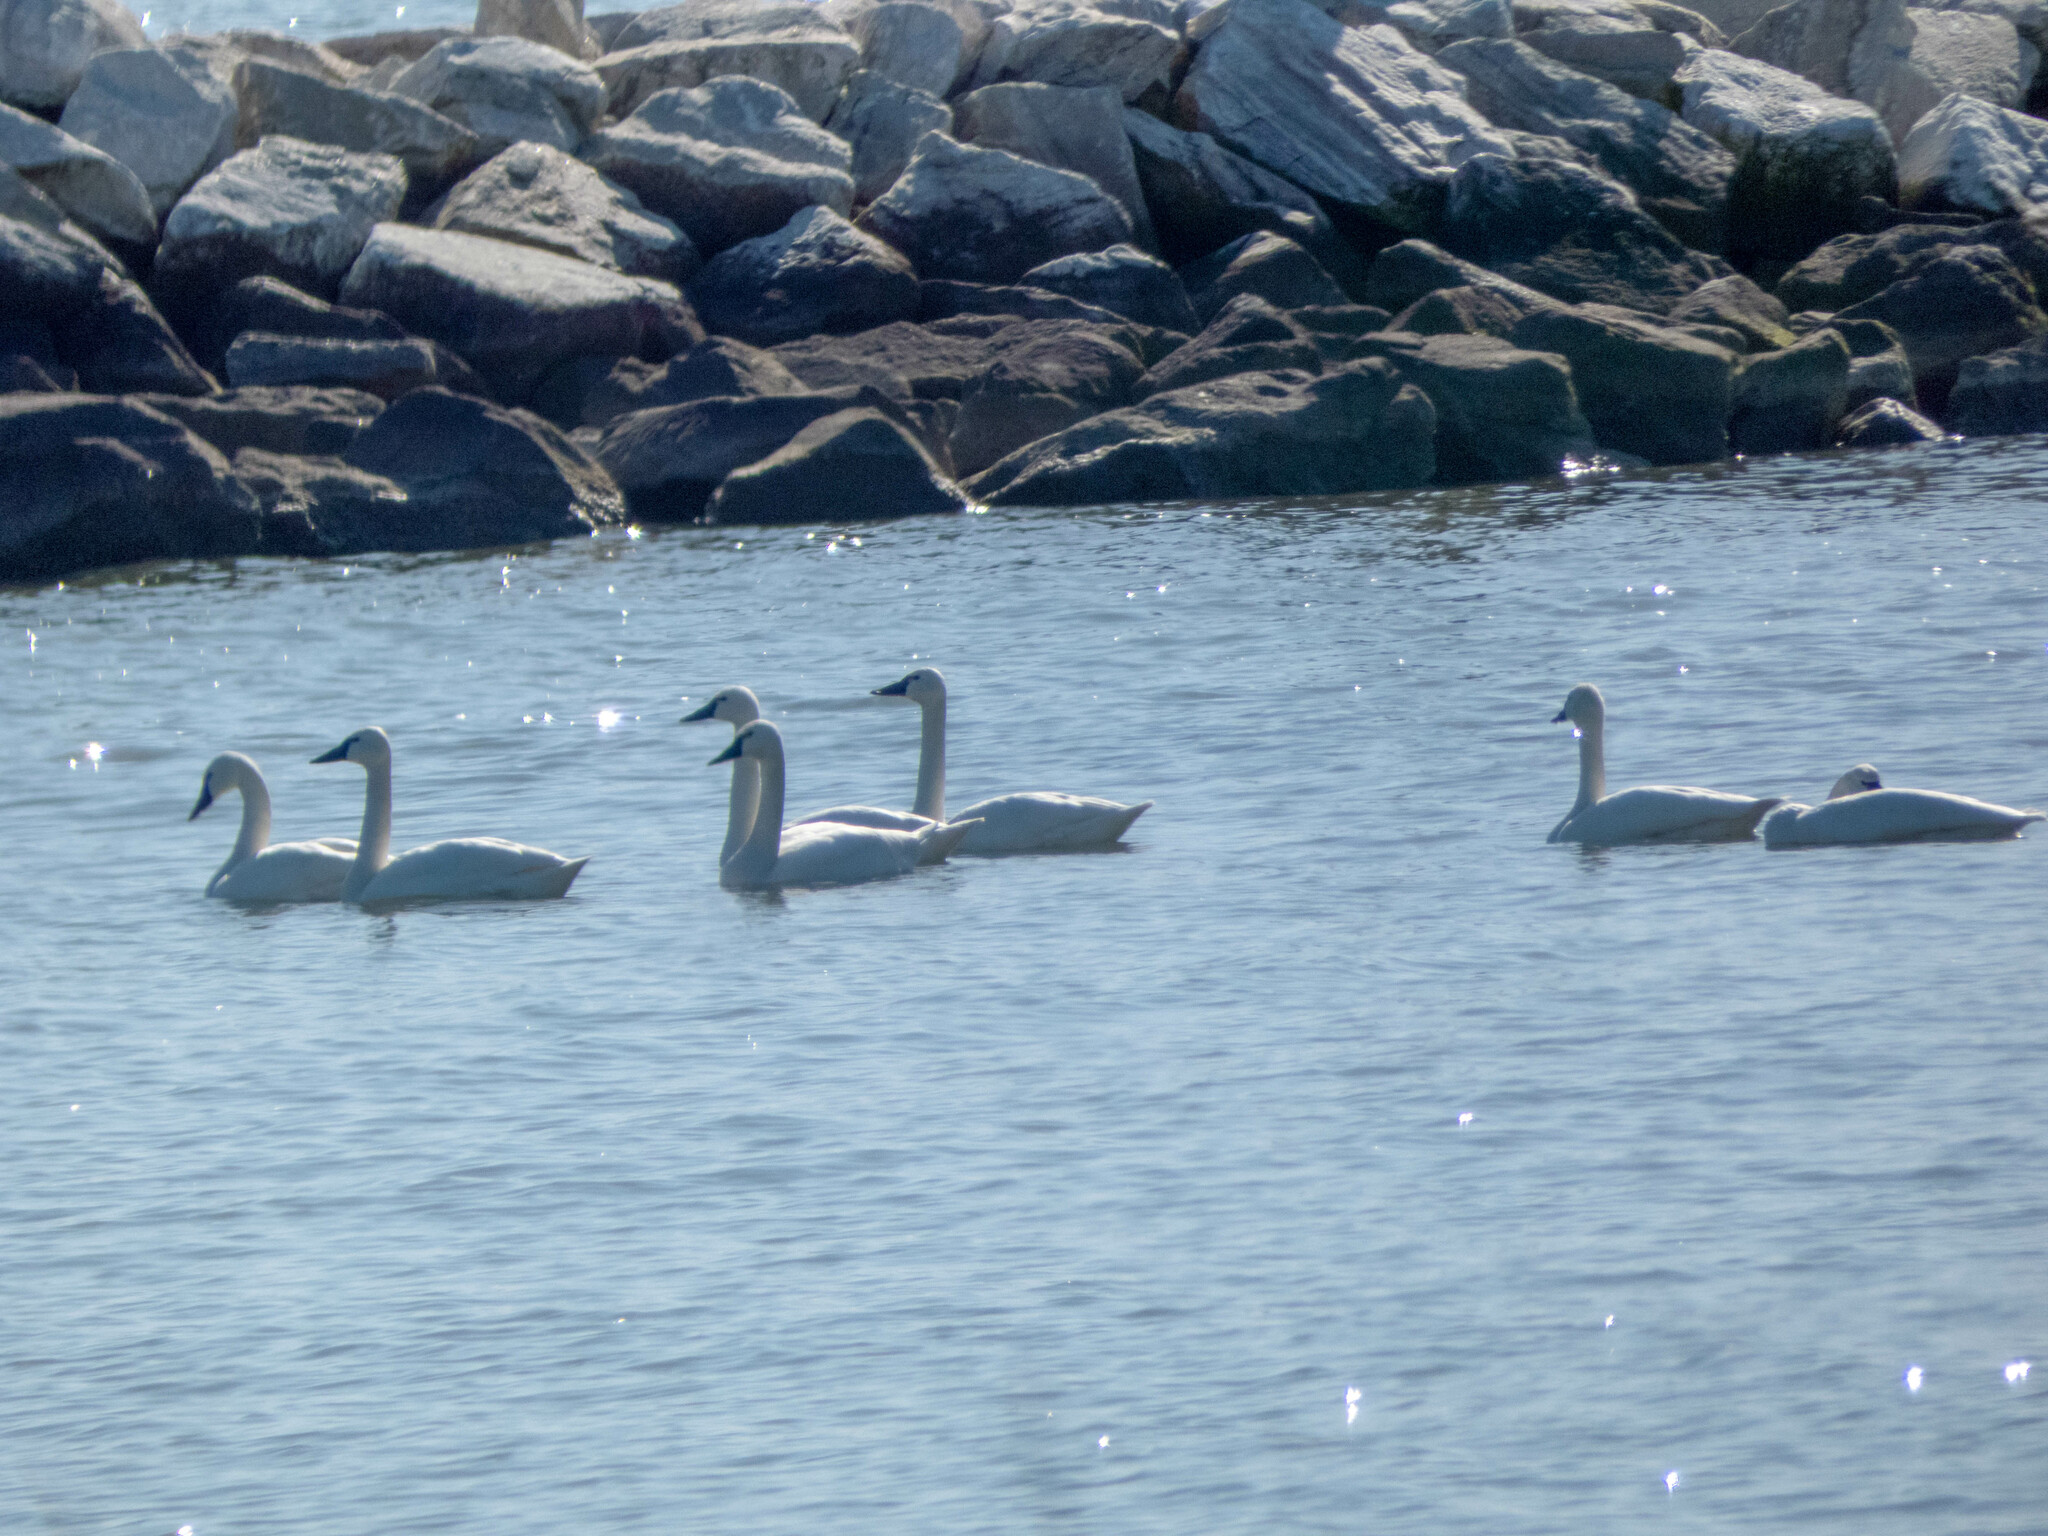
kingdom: Animalia
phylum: Chordata
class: Aves
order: Anseriformes
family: Anatidae
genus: Cygnus
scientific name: Cygnus columbianus
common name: Tundra swan
